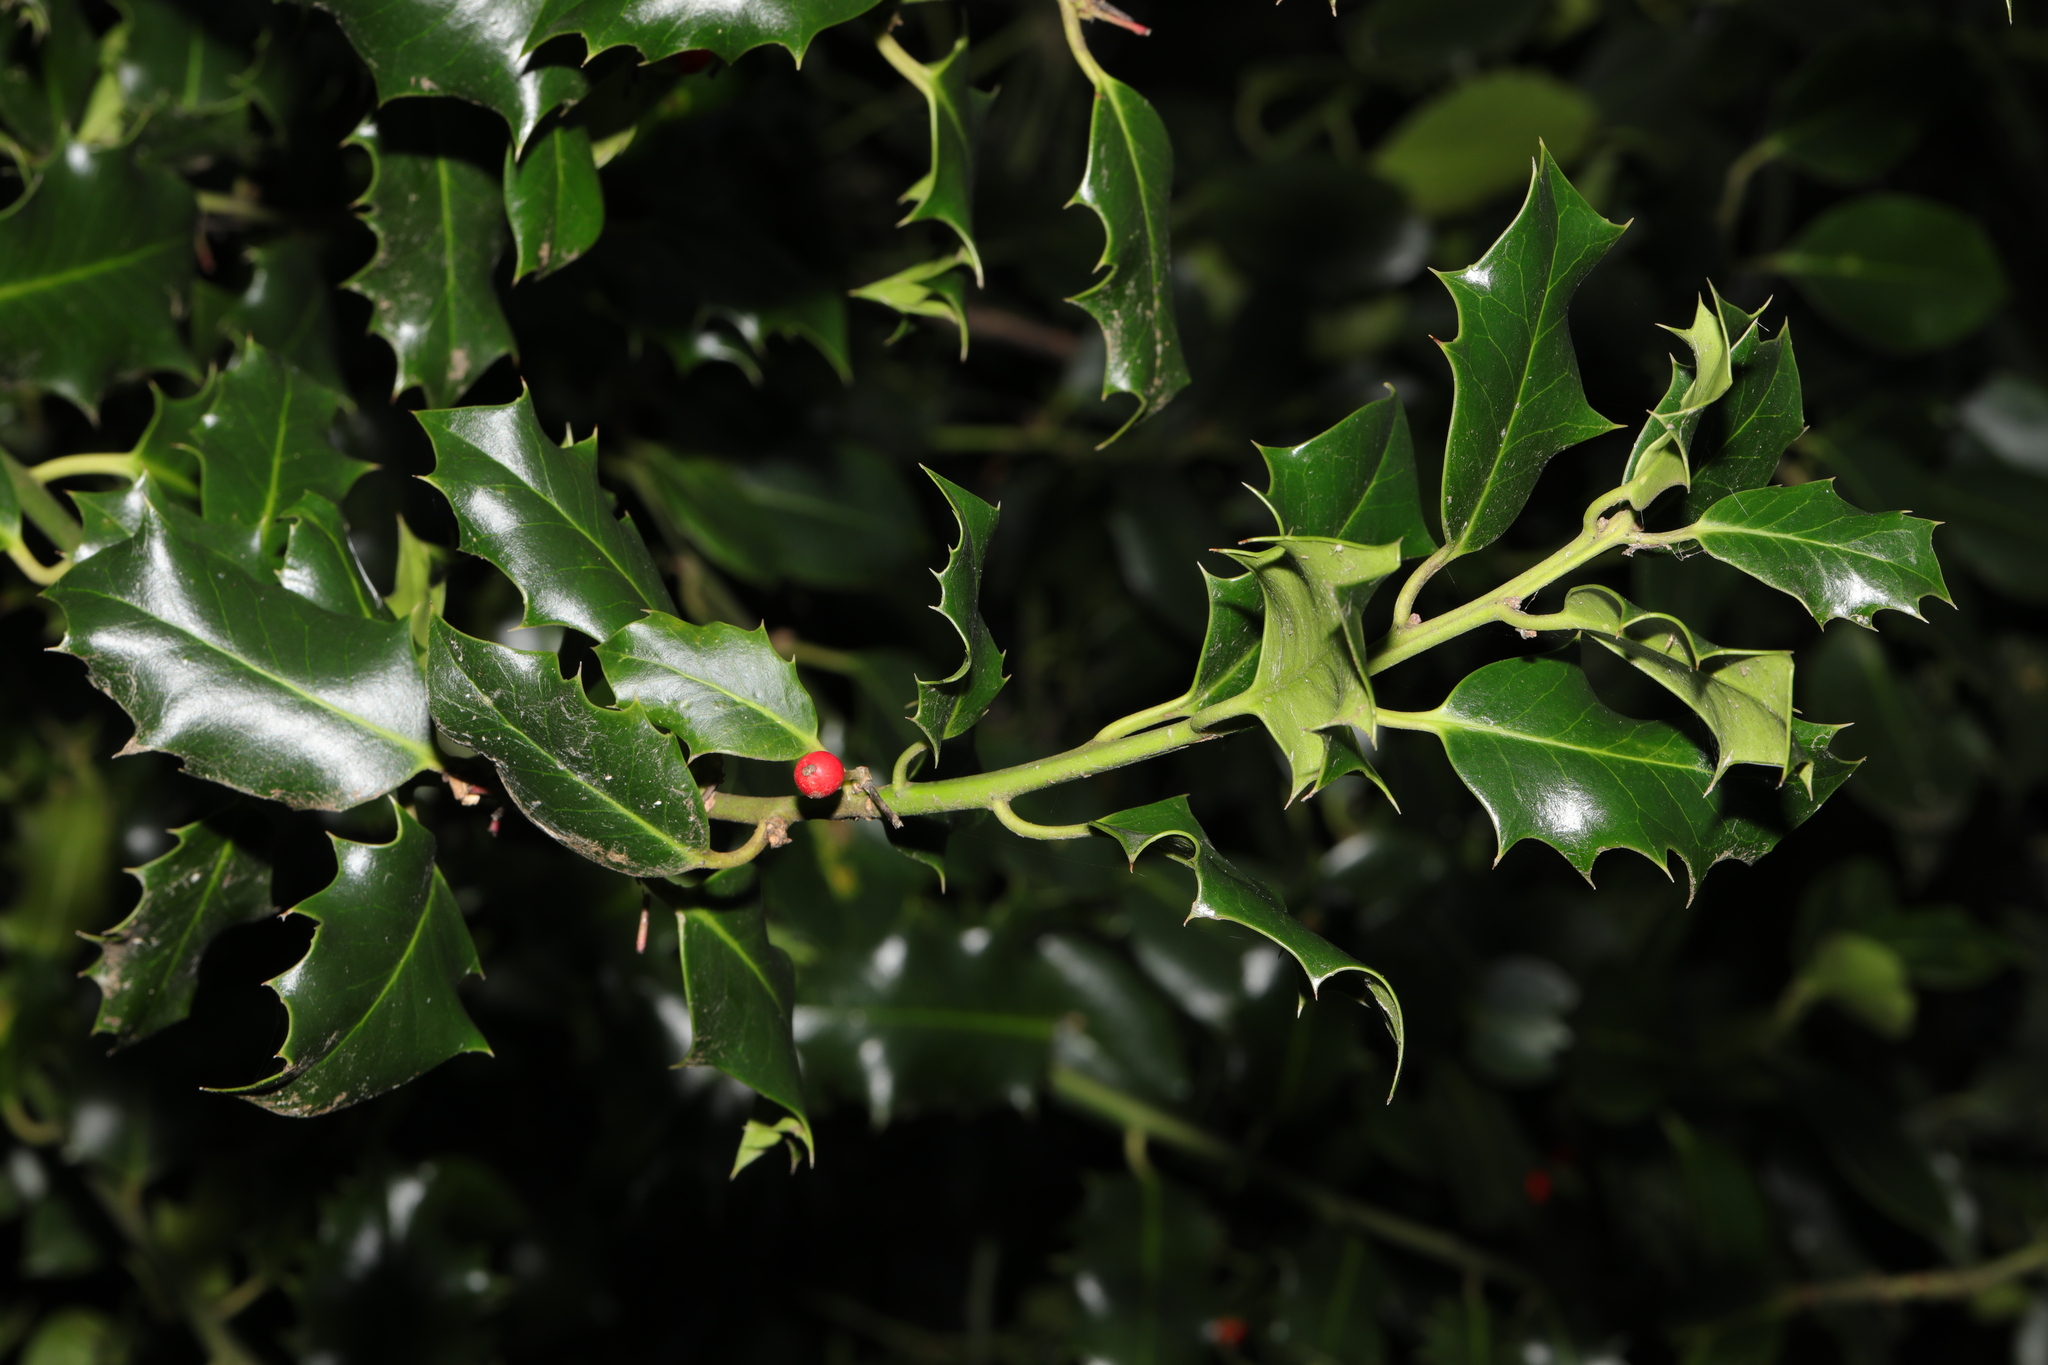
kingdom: Plantae
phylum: Tracheophyta
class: Magnoliopsida
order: Aquifoliales
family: Aquifoliaceae
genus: Ilex
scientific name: Ilex aquifolium
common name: English holly
